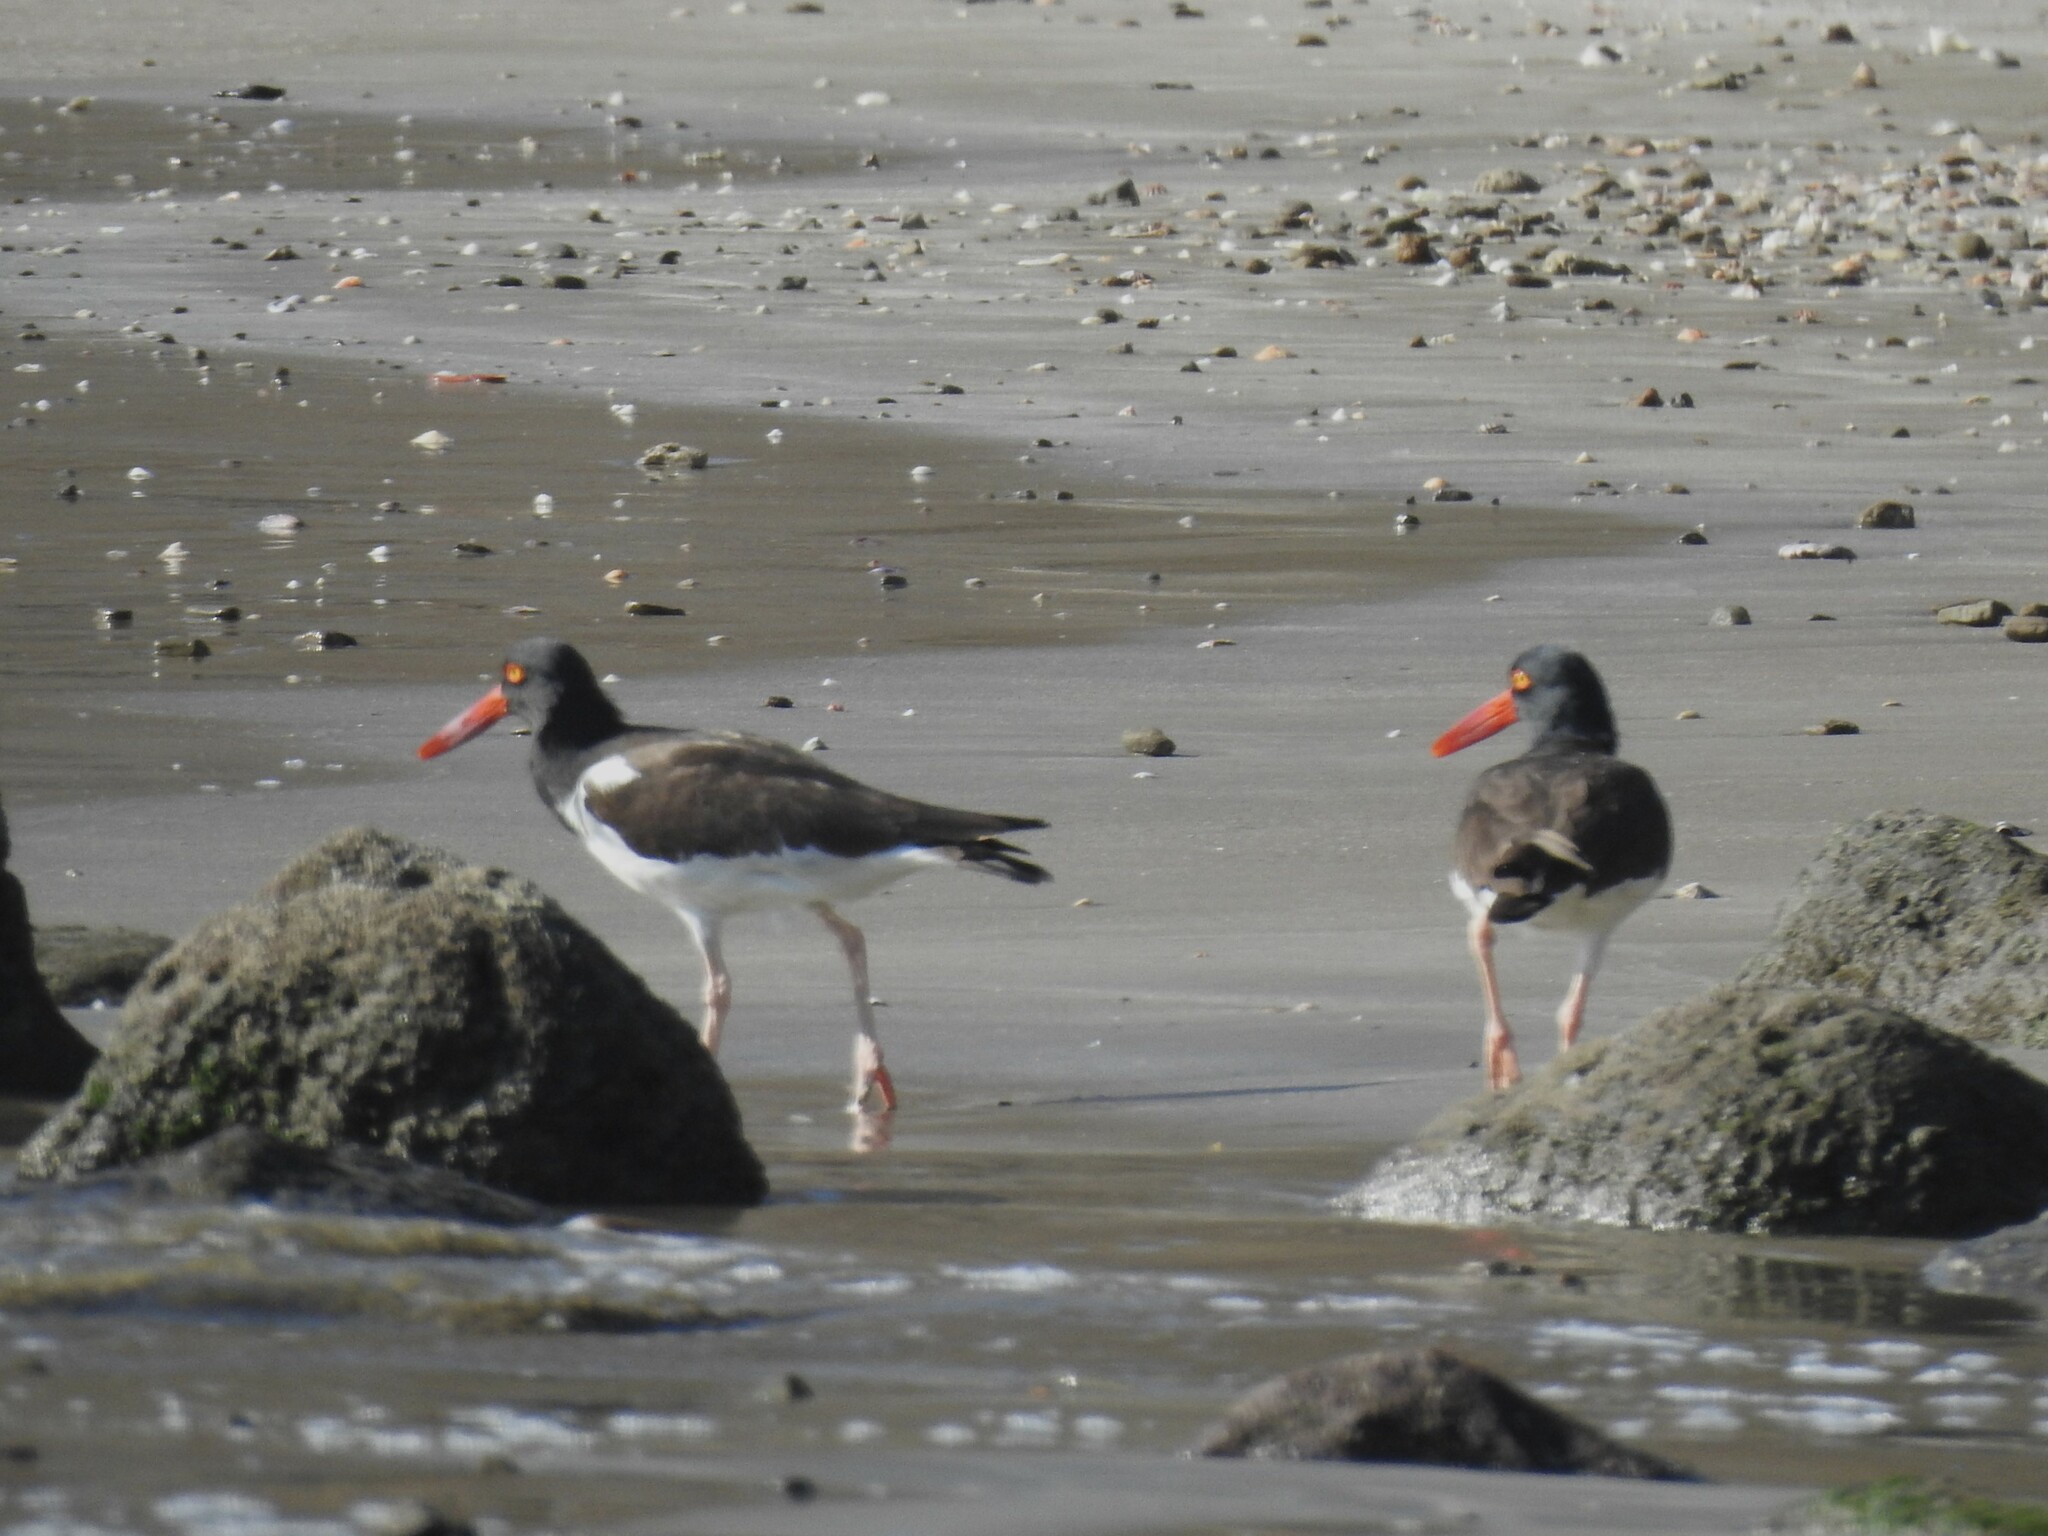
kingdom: Animalia
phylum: Chordata
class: Aves
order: Charadriiformes
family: Haematopodidae
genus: Haematopus
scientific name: Haematopus palliatus
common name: American oystercatcher
